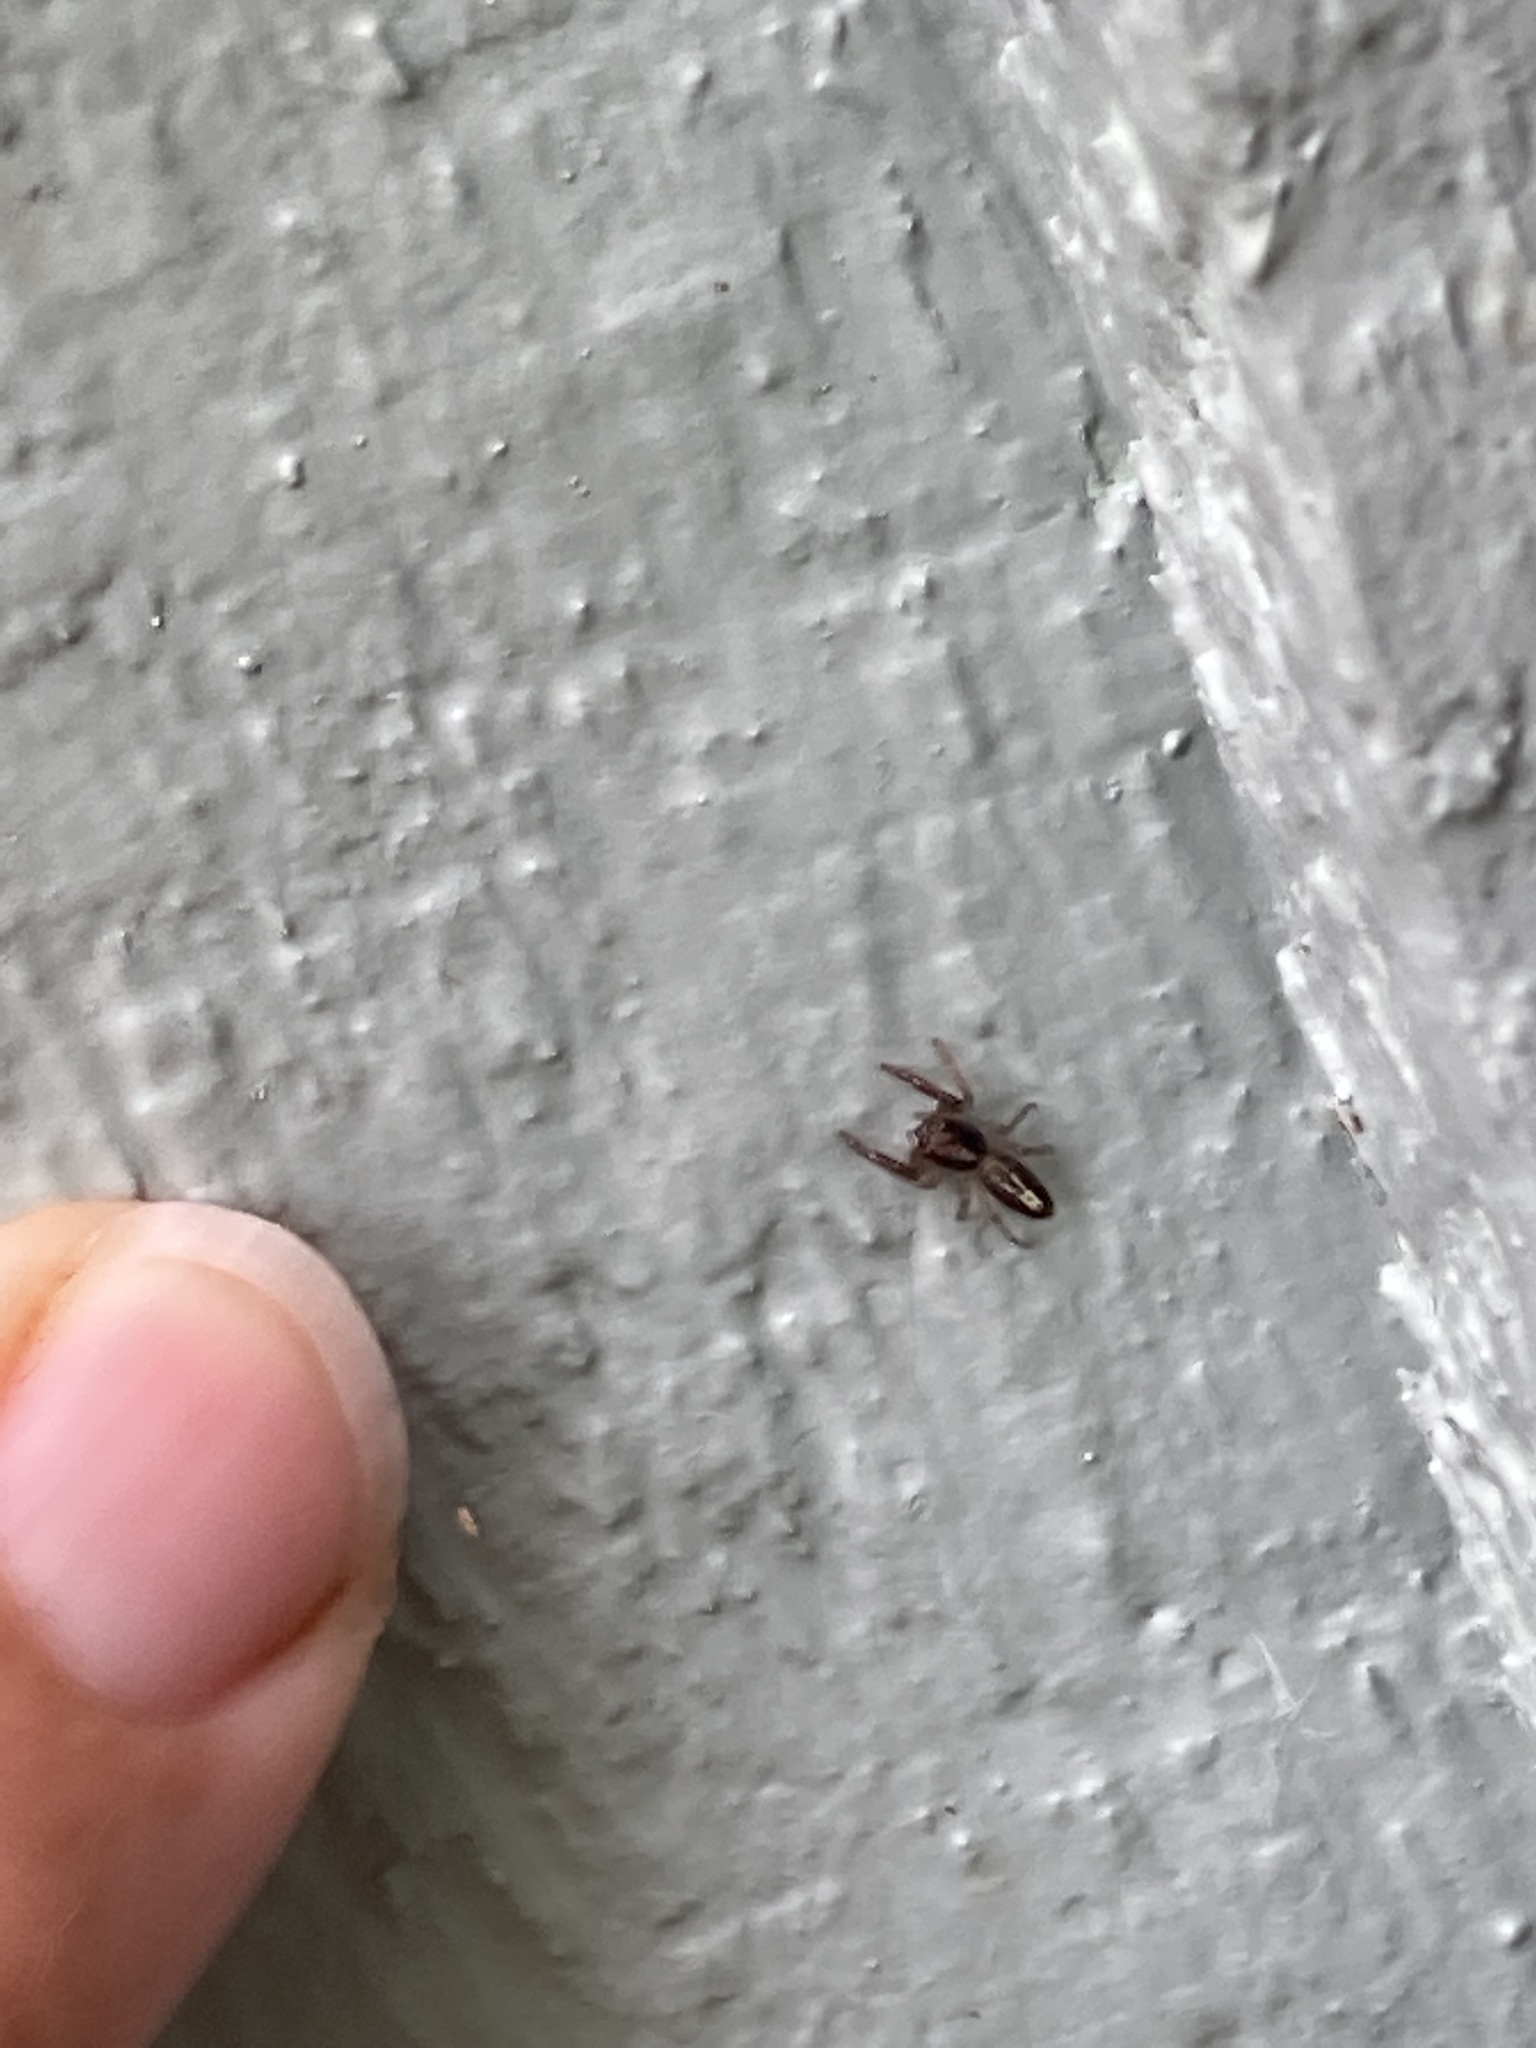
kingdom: Animalia
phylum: Arthropoda
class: Arachnida
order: Araneae
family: Salticidae
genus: Trite
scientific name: Trite planiceps
